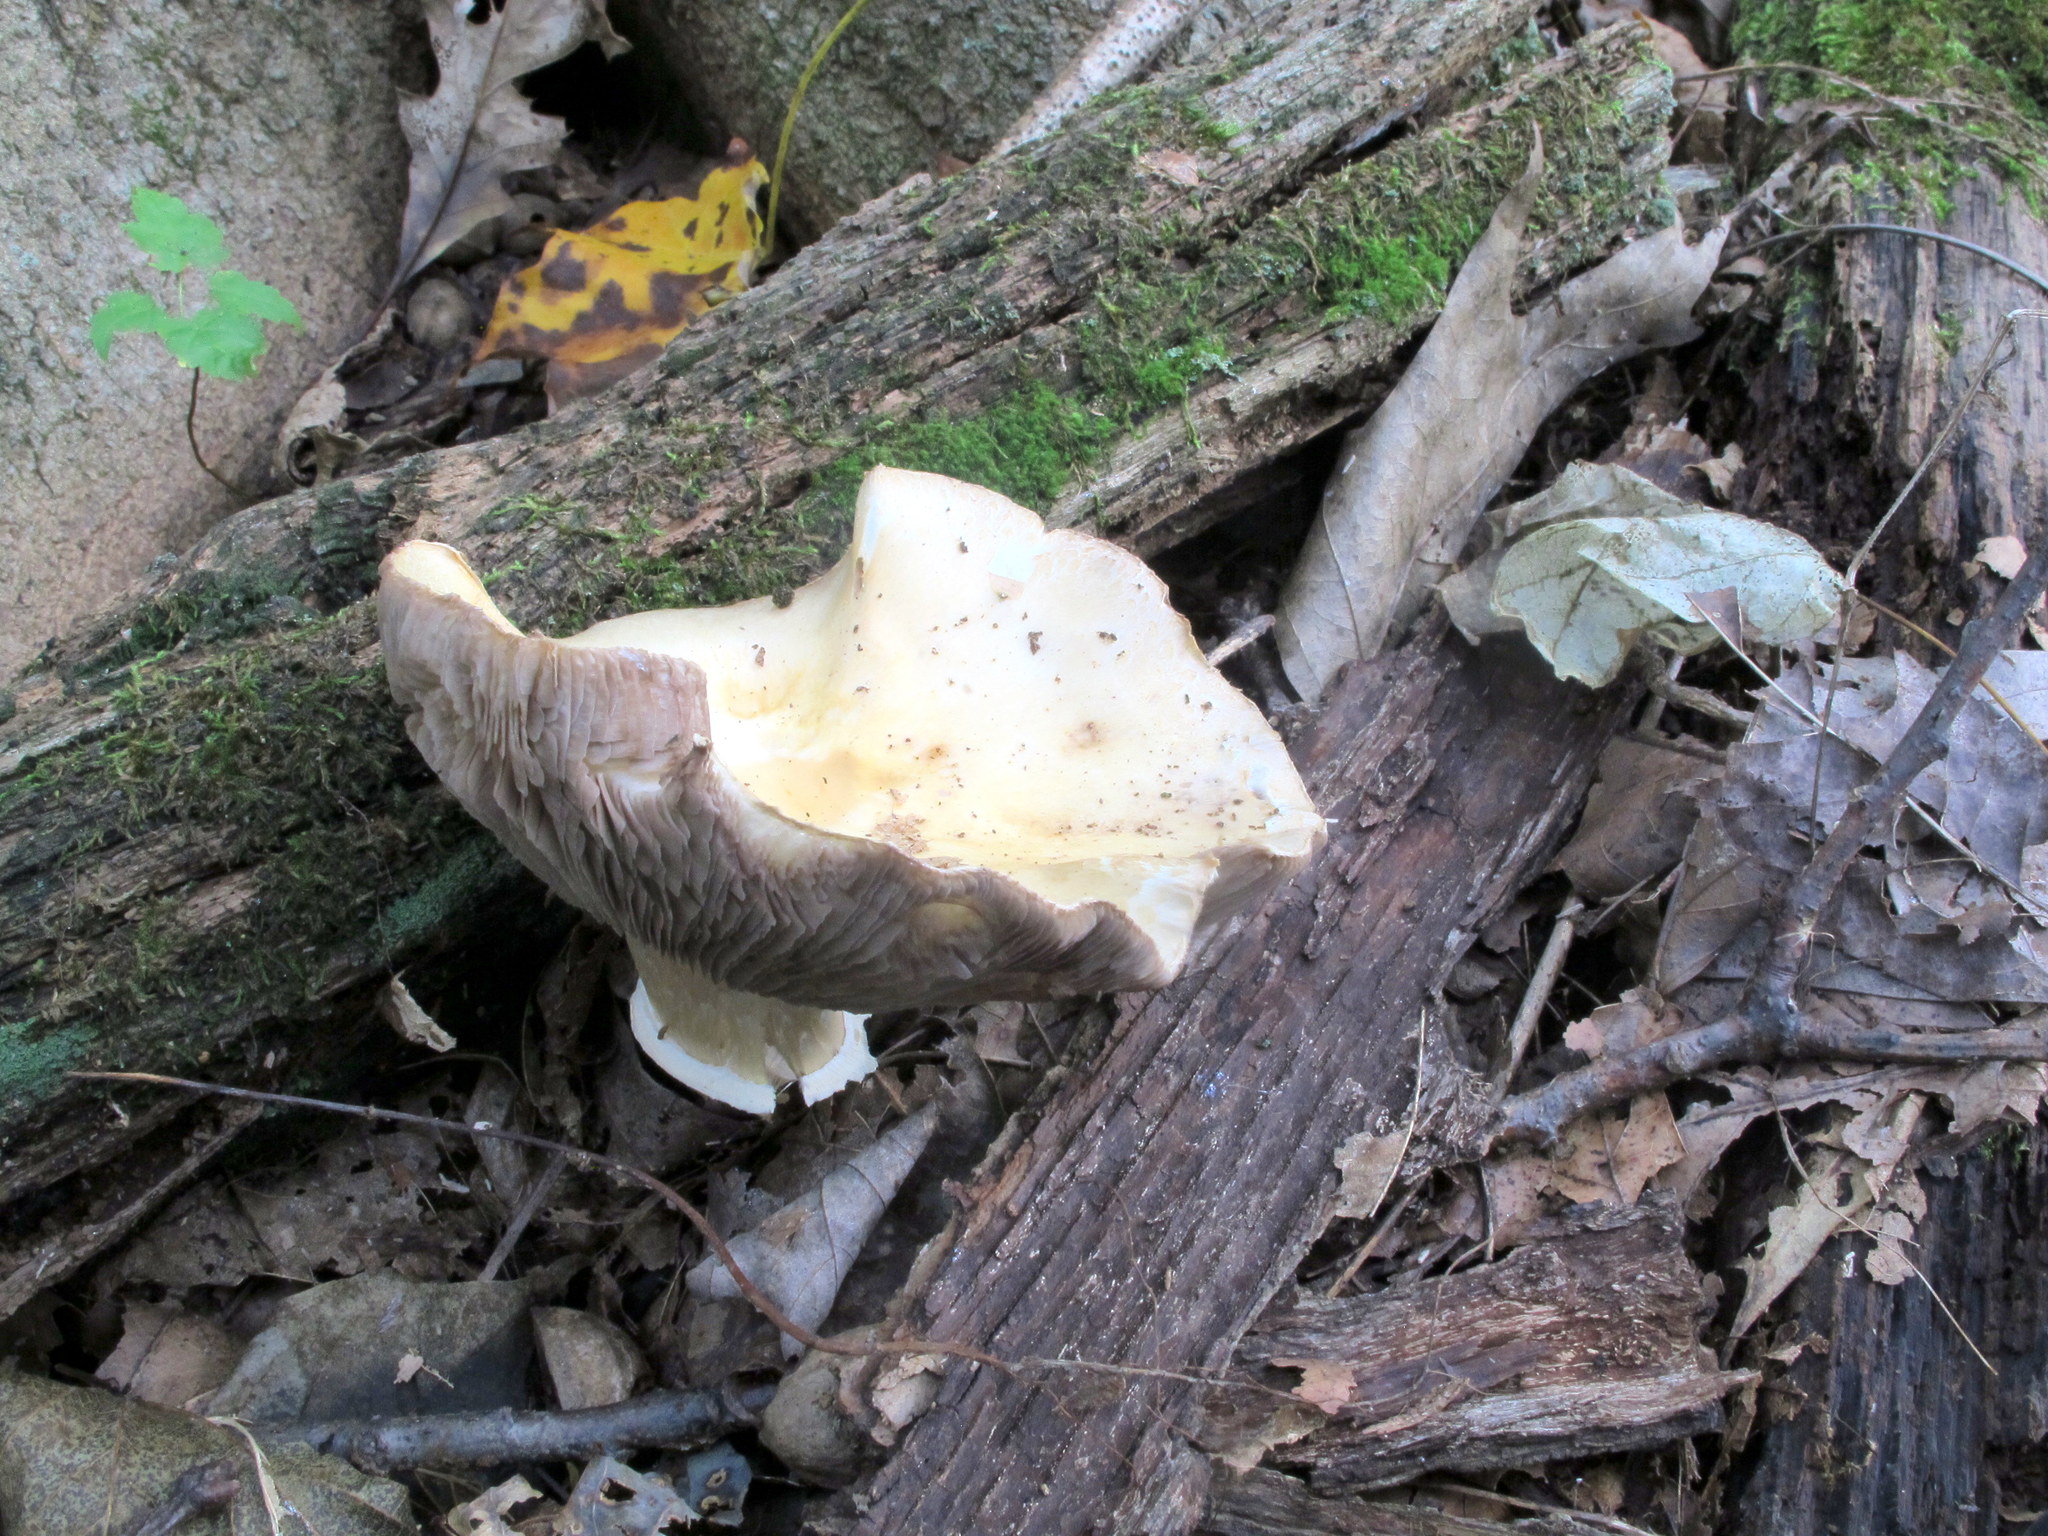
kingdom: Fungi
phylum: Basidiomycota
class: Agaricomycetes
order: Agaricales
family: Strophariaceae
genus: Stropharia
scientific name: Stropharia hardii
